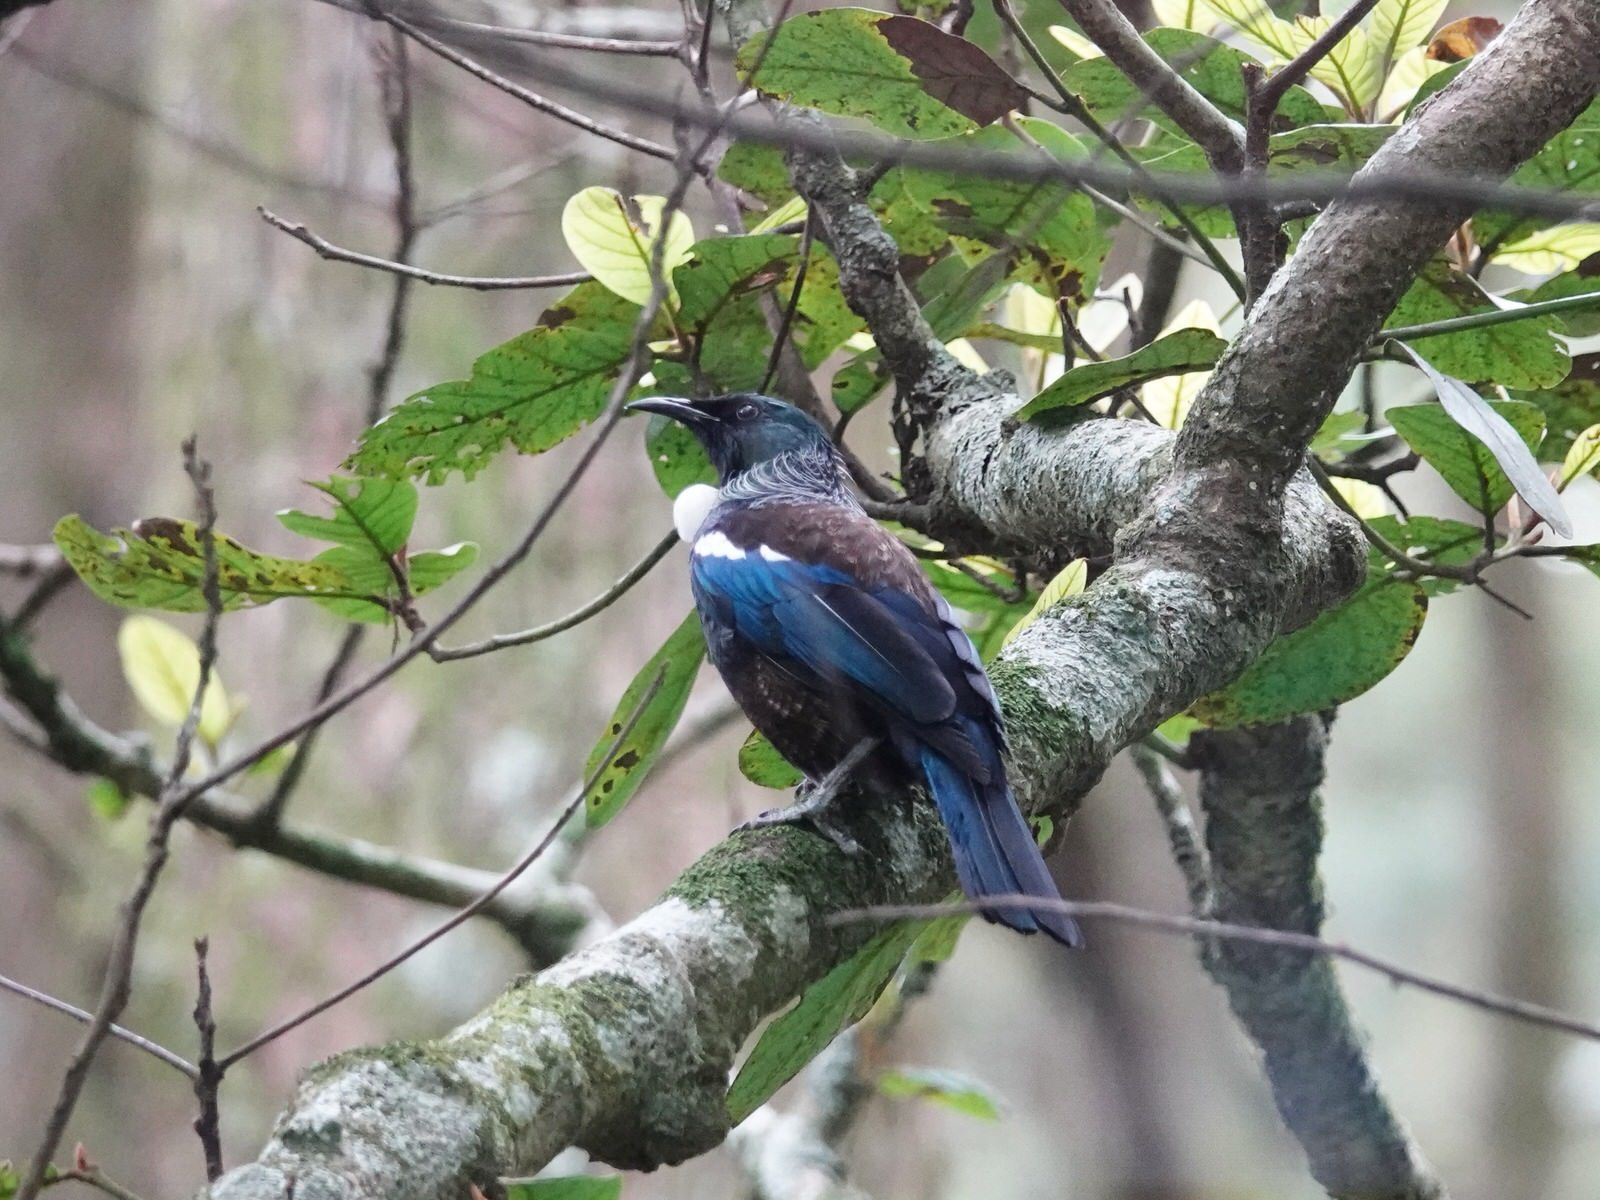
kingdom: Animalia
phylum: Chordata
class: Aves
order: Passeriformes
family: Meliphagidae
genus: Prosthemadera
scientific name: Prosthemadera novaeseelandiae
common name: Tui
